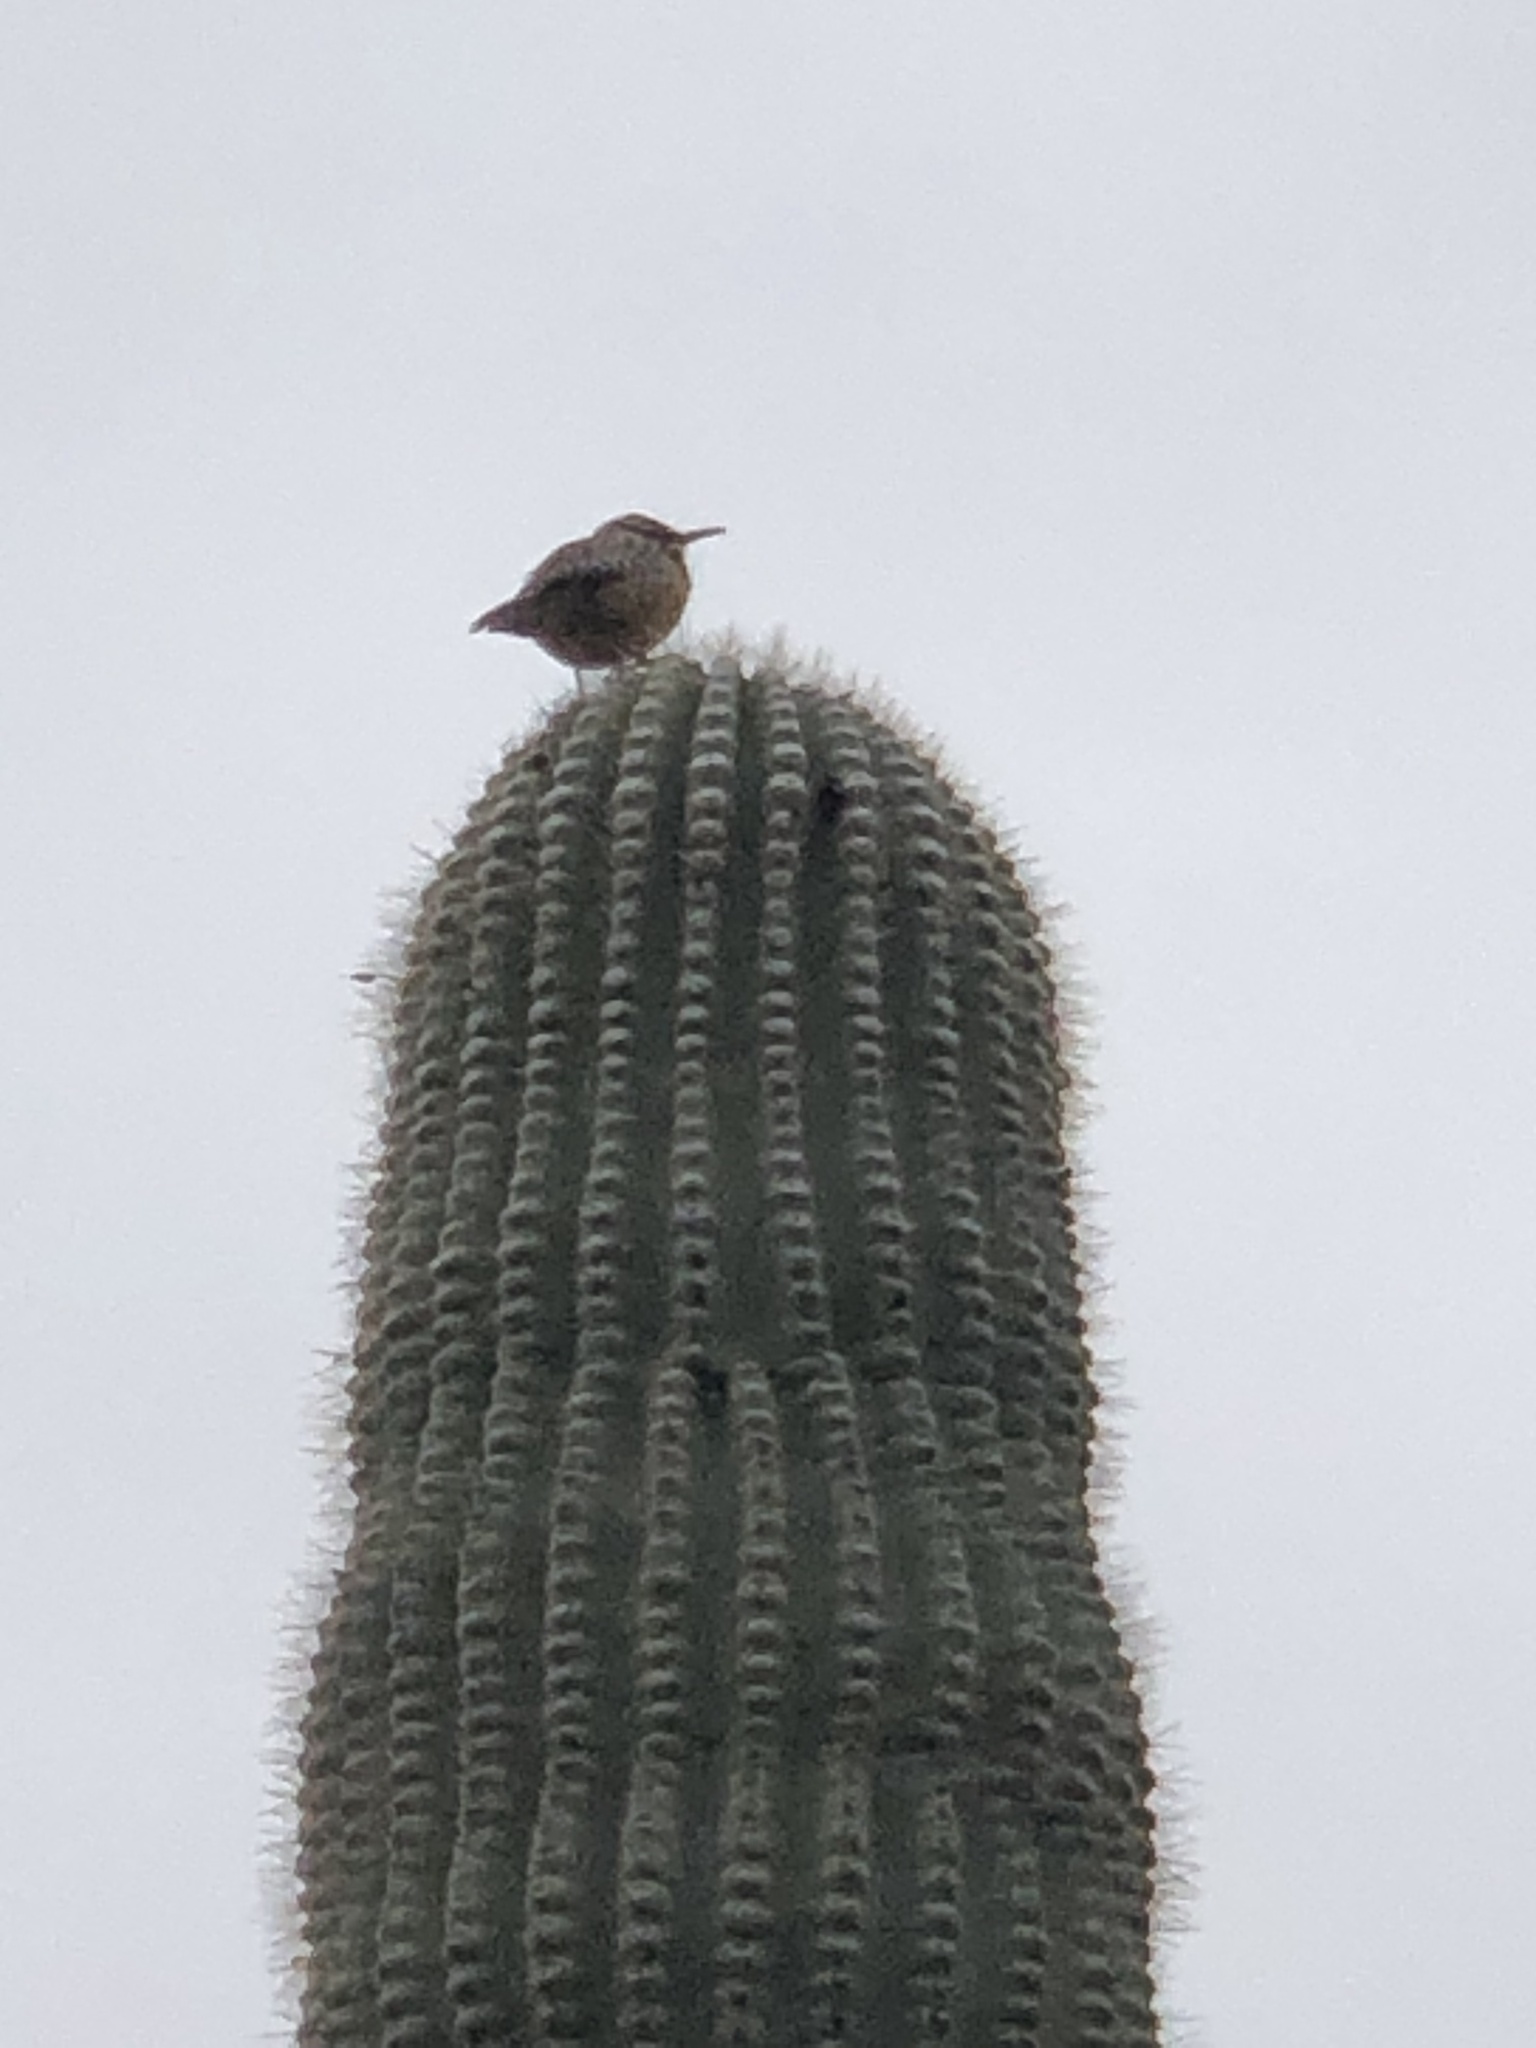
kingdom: Animalia
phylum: Chordata
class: Aves
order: Passeriformes
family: Troglodytidae
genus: Campylorhynchus
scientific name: Campylorhynchus brunneicapillus
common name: Cactus wren
